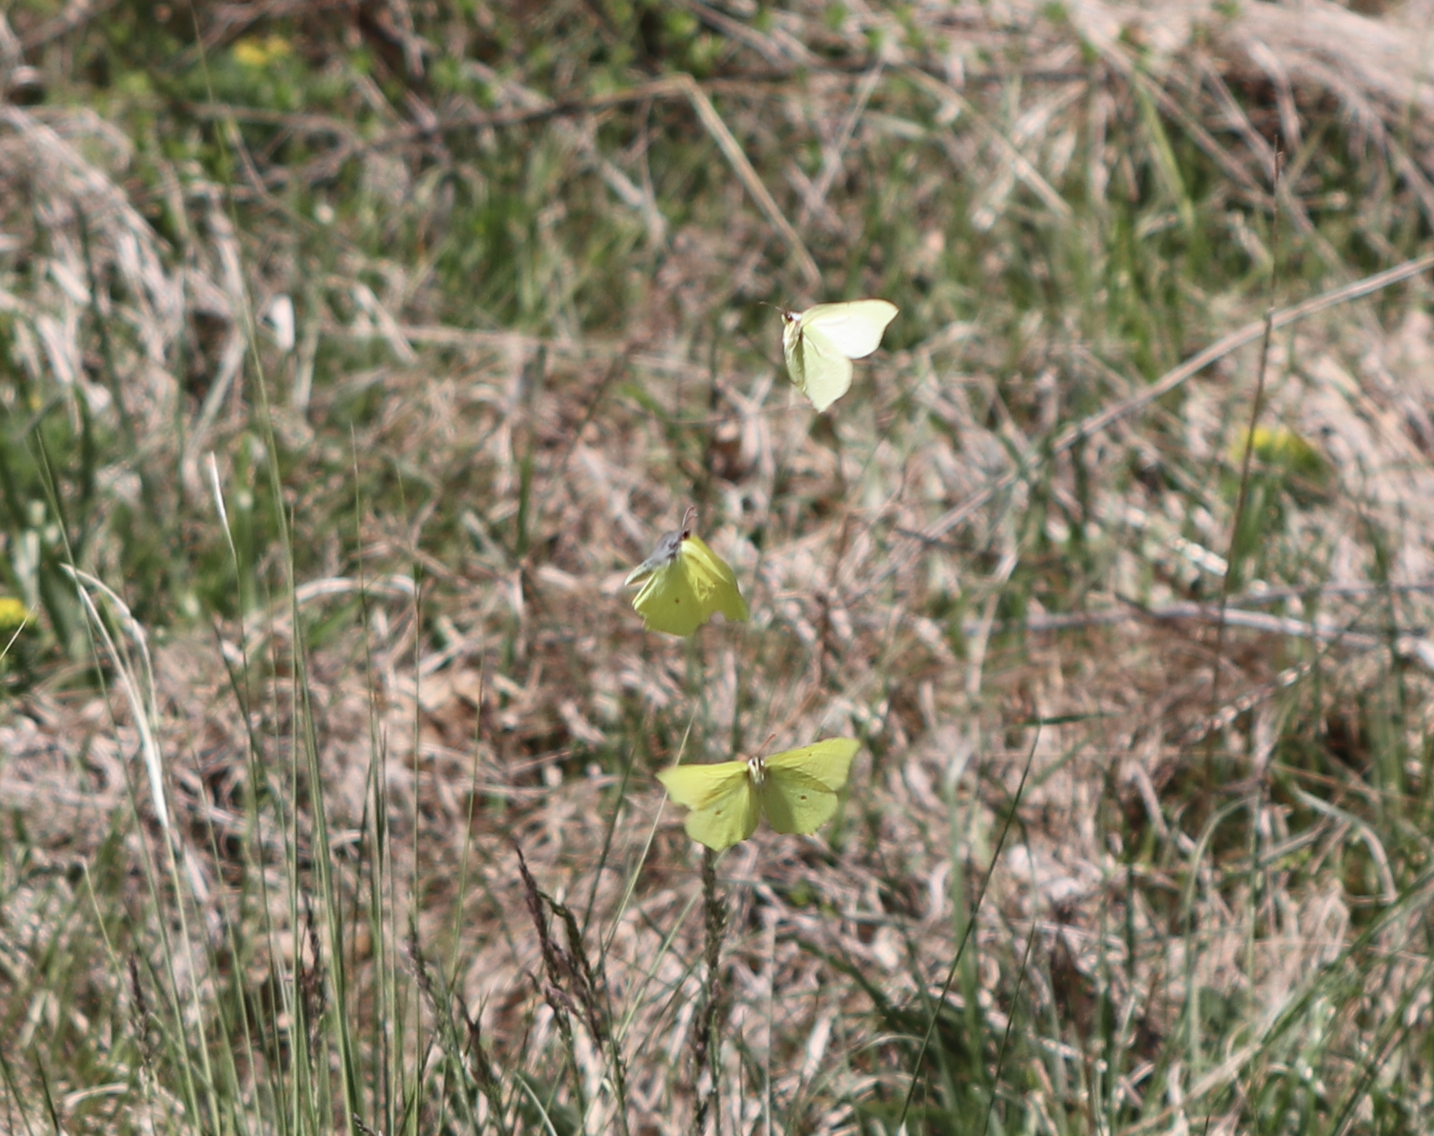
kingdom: Animalia
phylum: Arthropoda
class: Insecta
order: Lepidoptera
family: Pieridae
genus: Gonepteryx
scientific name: Gonepteryx rhamni
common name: Brimstone
